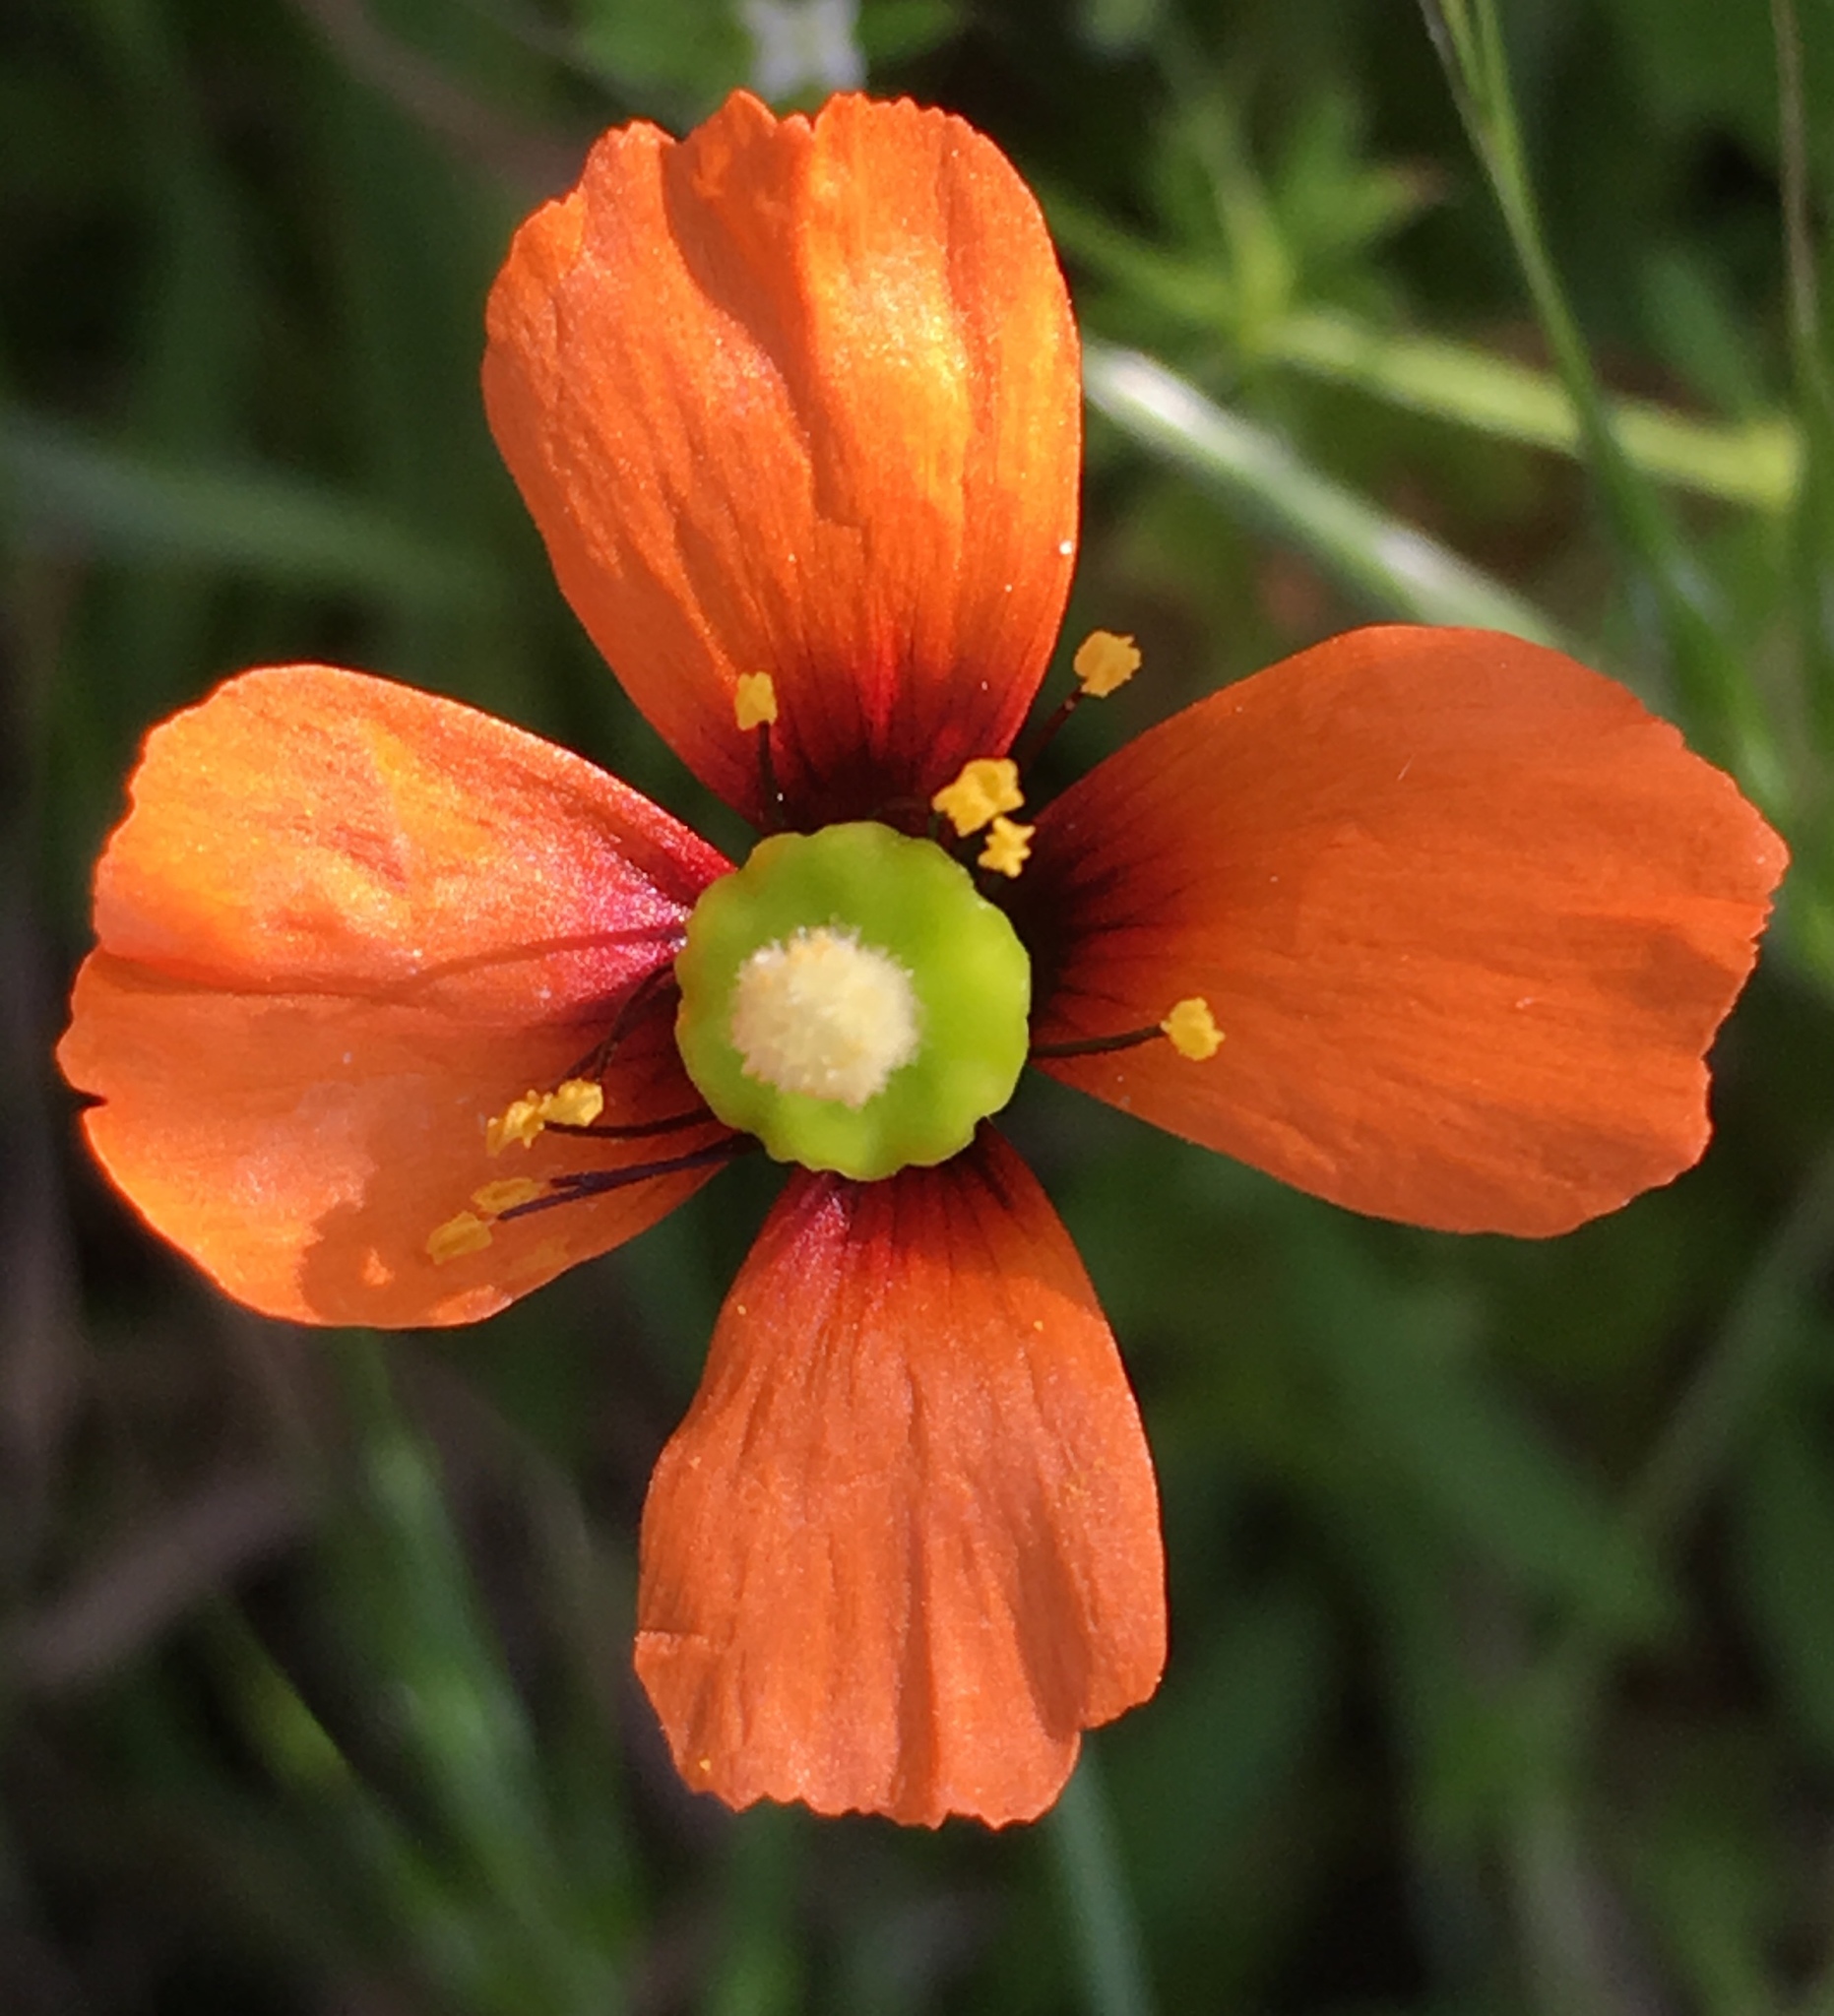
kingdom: Plantae
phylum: Tracheophyta
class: Magnoliopsida
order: Ranunculales
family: Papaveraceae
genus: Stylomecon
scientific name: Stylomecon heterophylla
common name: Flaming-poppy
